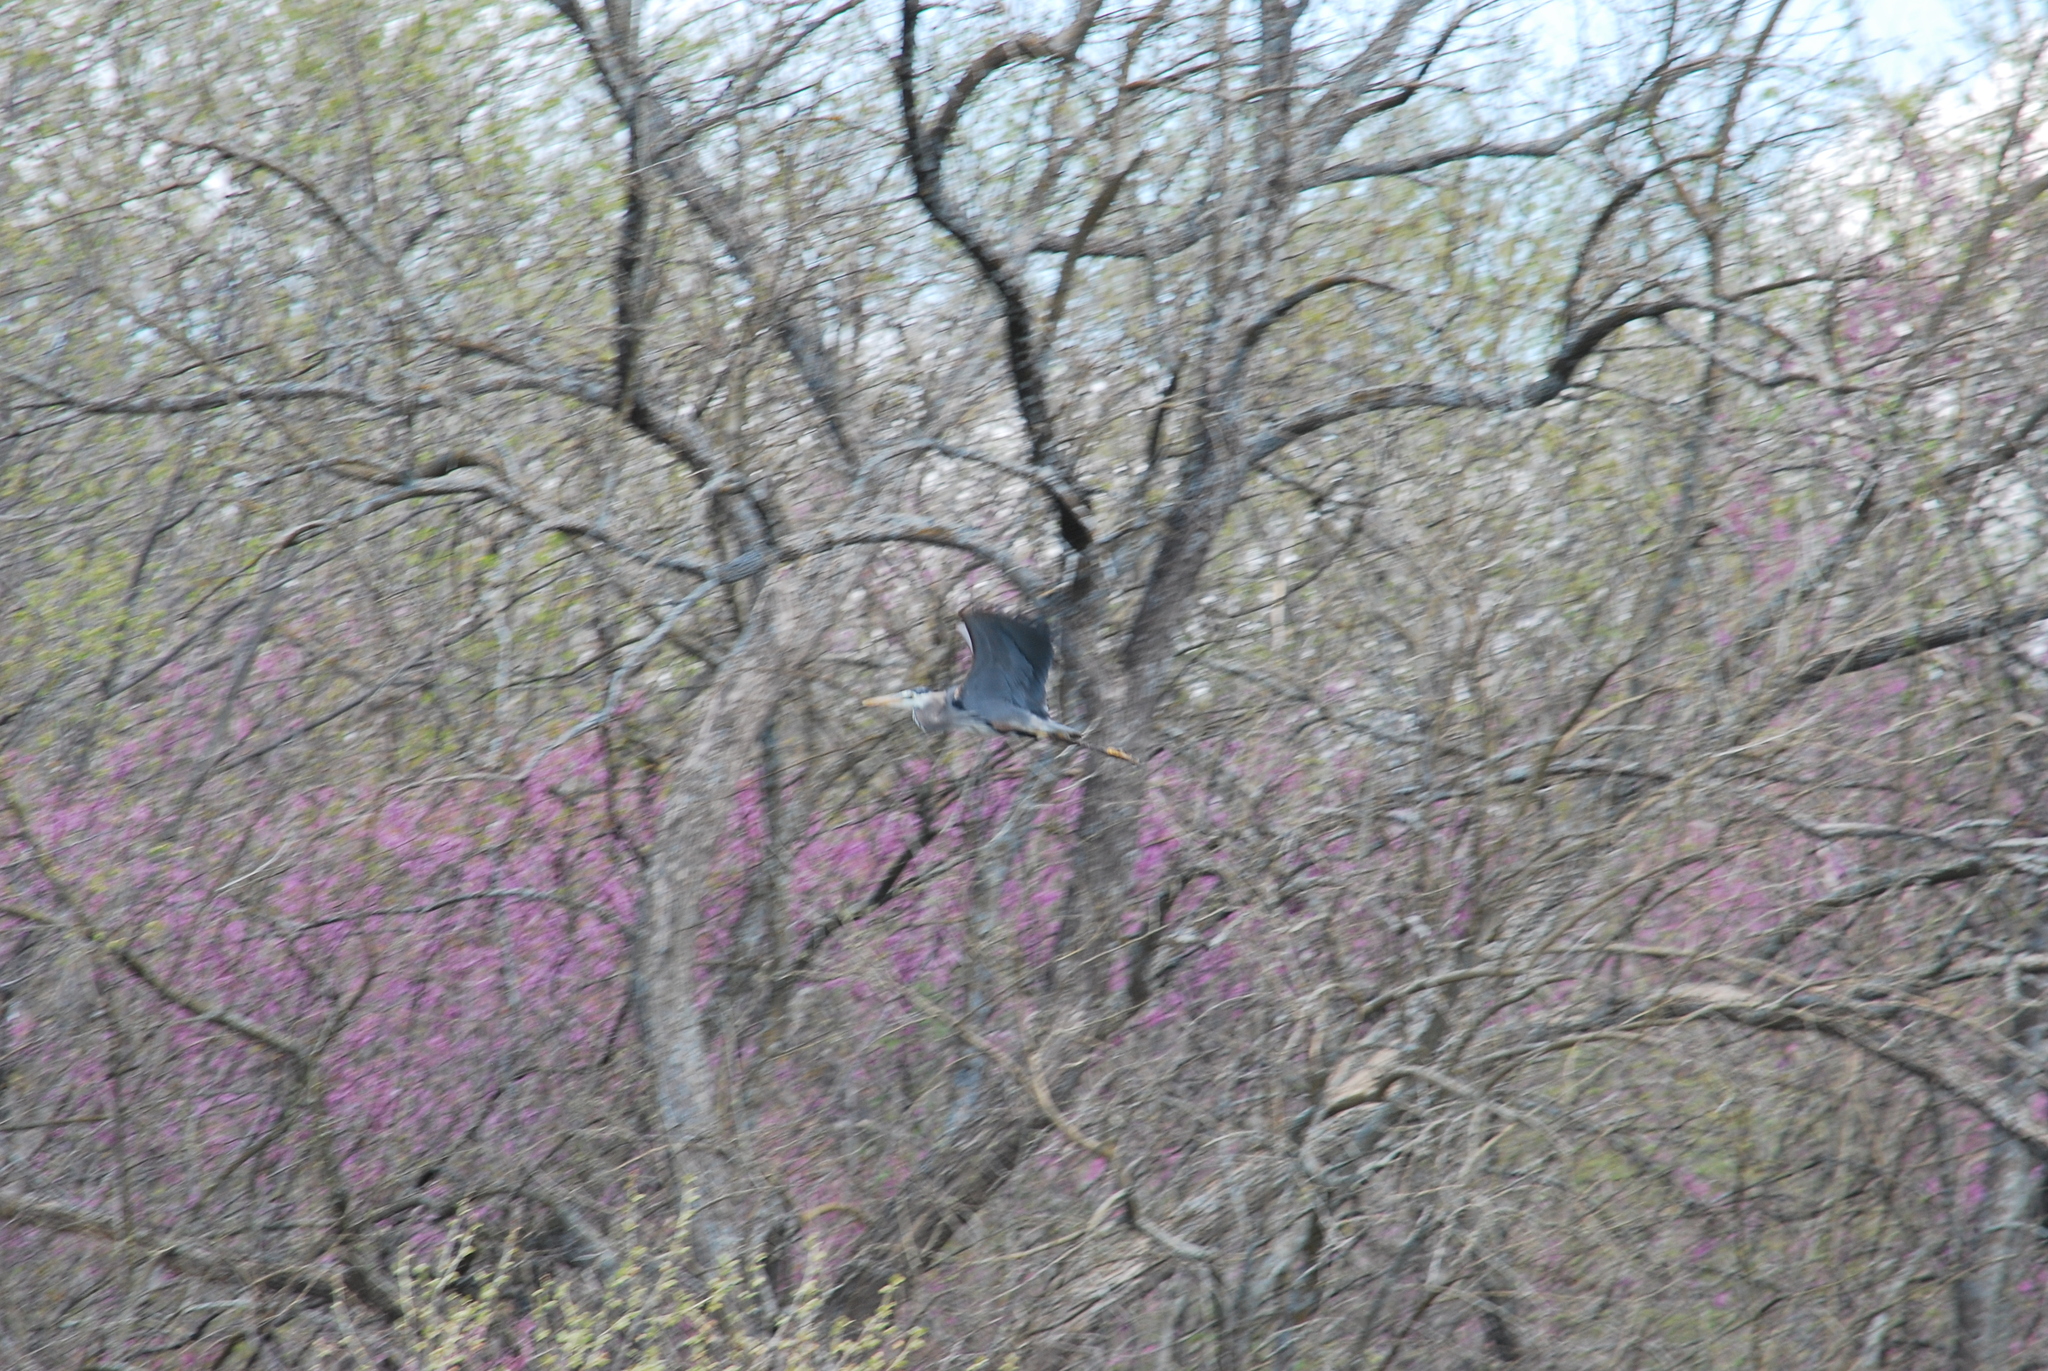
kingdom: Animalia
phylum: Chordata
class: Aves
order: Pelecaniformes
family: Ardeidae
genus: Ardea
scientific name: Ardea herodias
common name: Great blue heron
